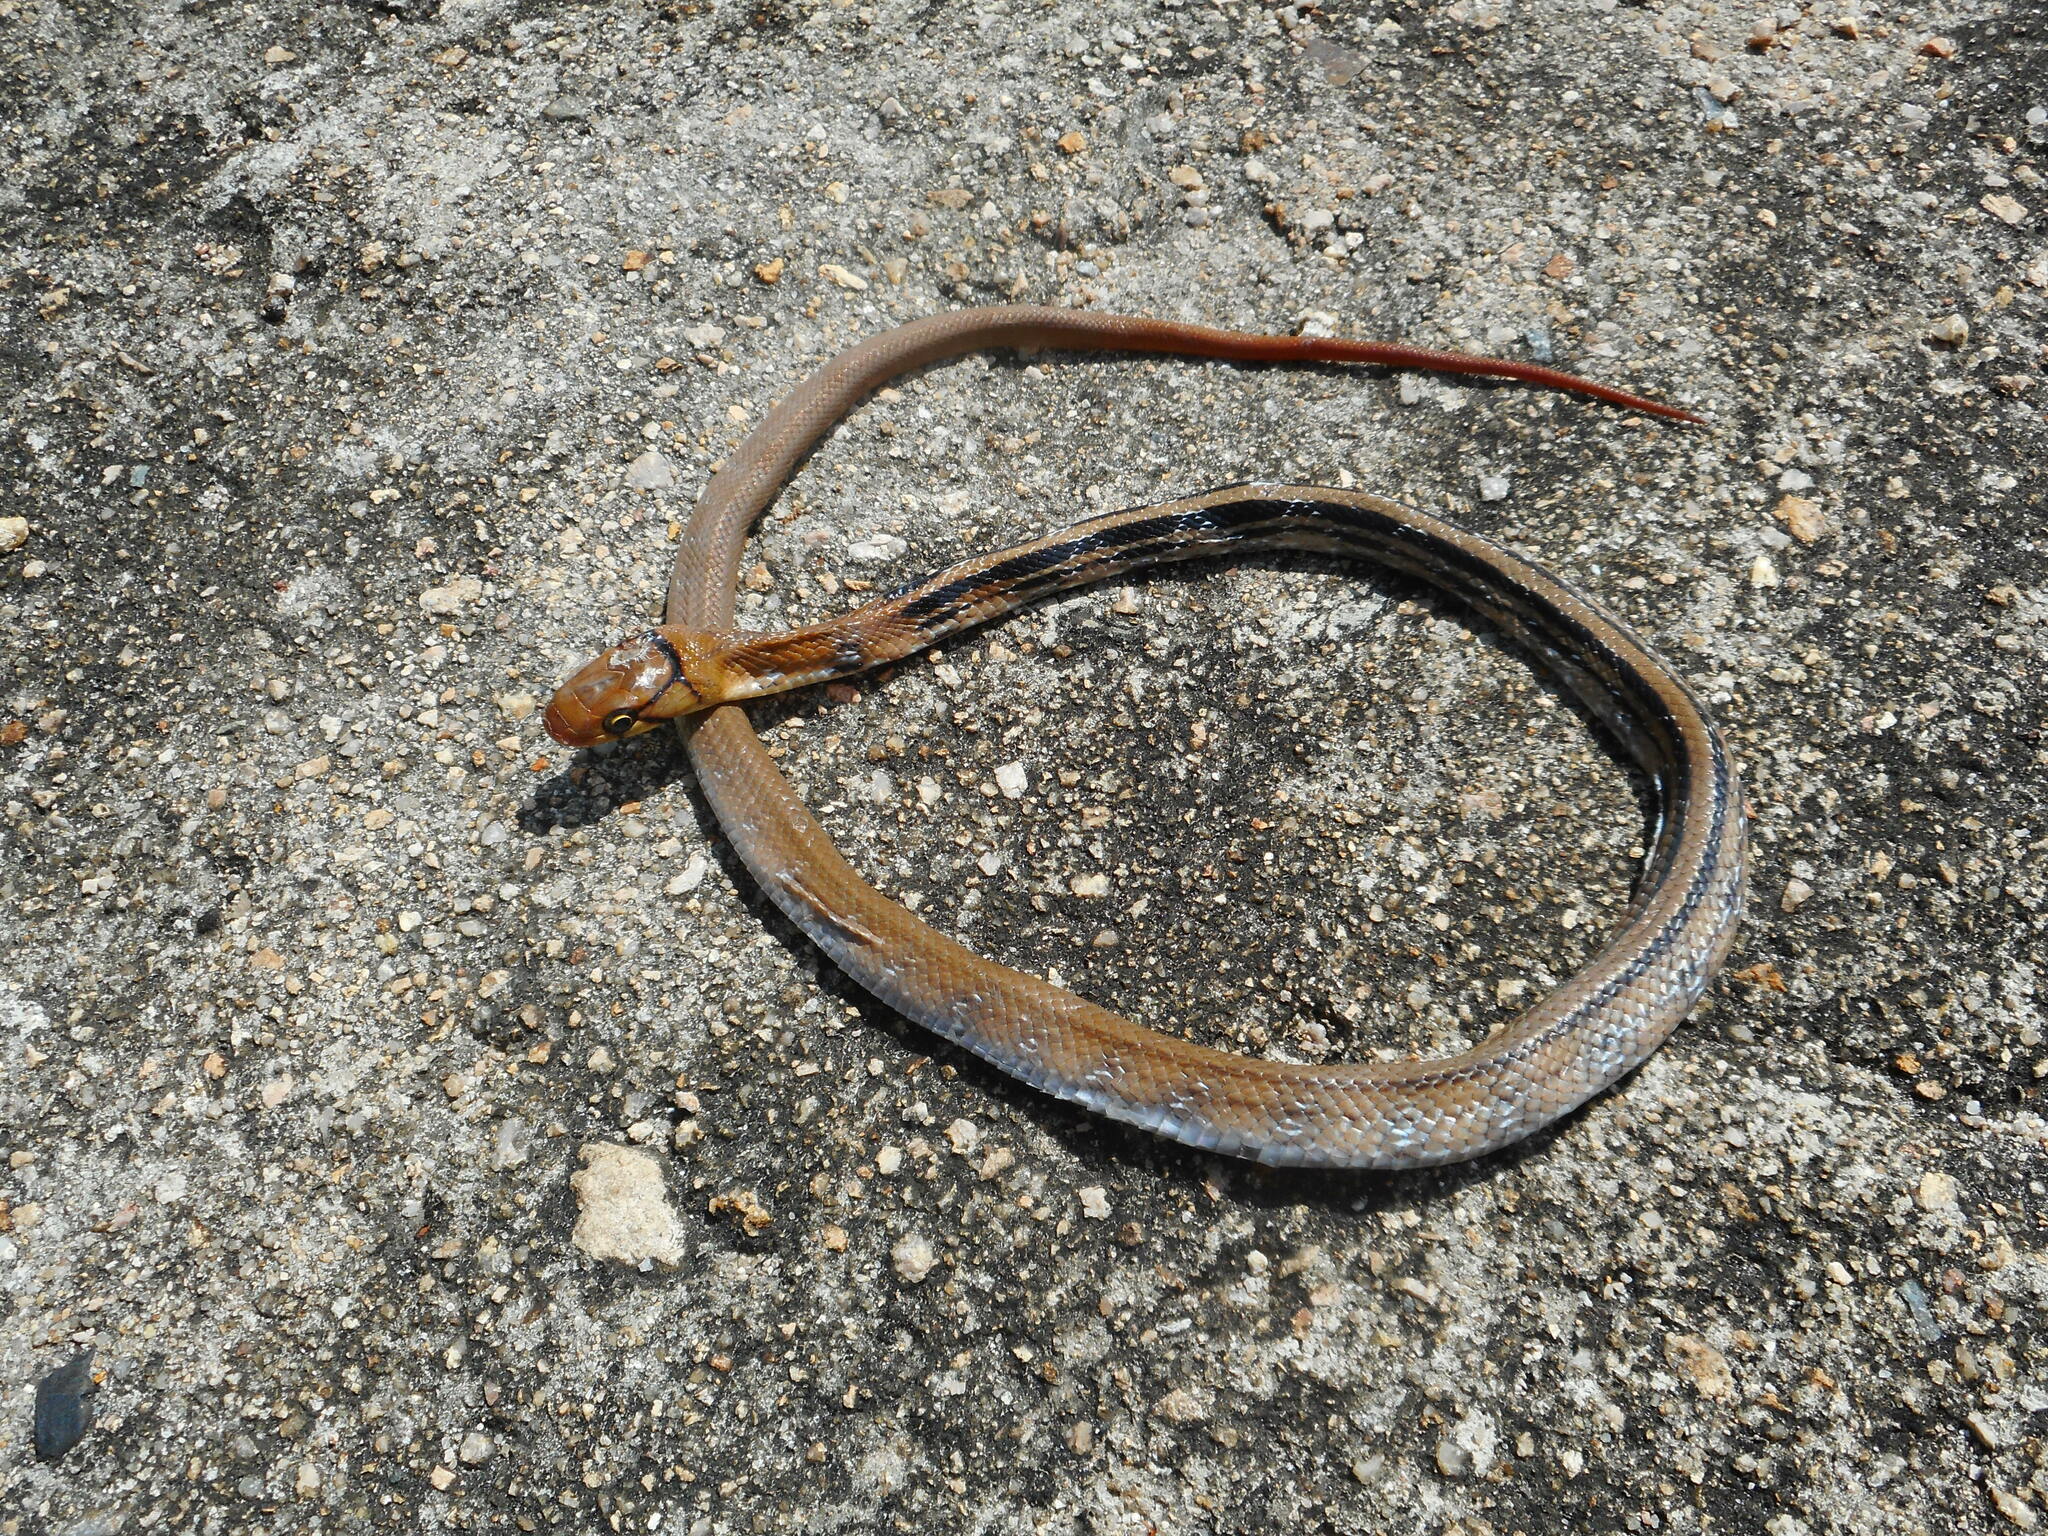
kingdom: Animalia
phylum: Chordata
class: Squamata
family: Colubridae
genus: Coelognathus
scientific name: Coelognathus radiatus
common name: Copperhead rat snake
